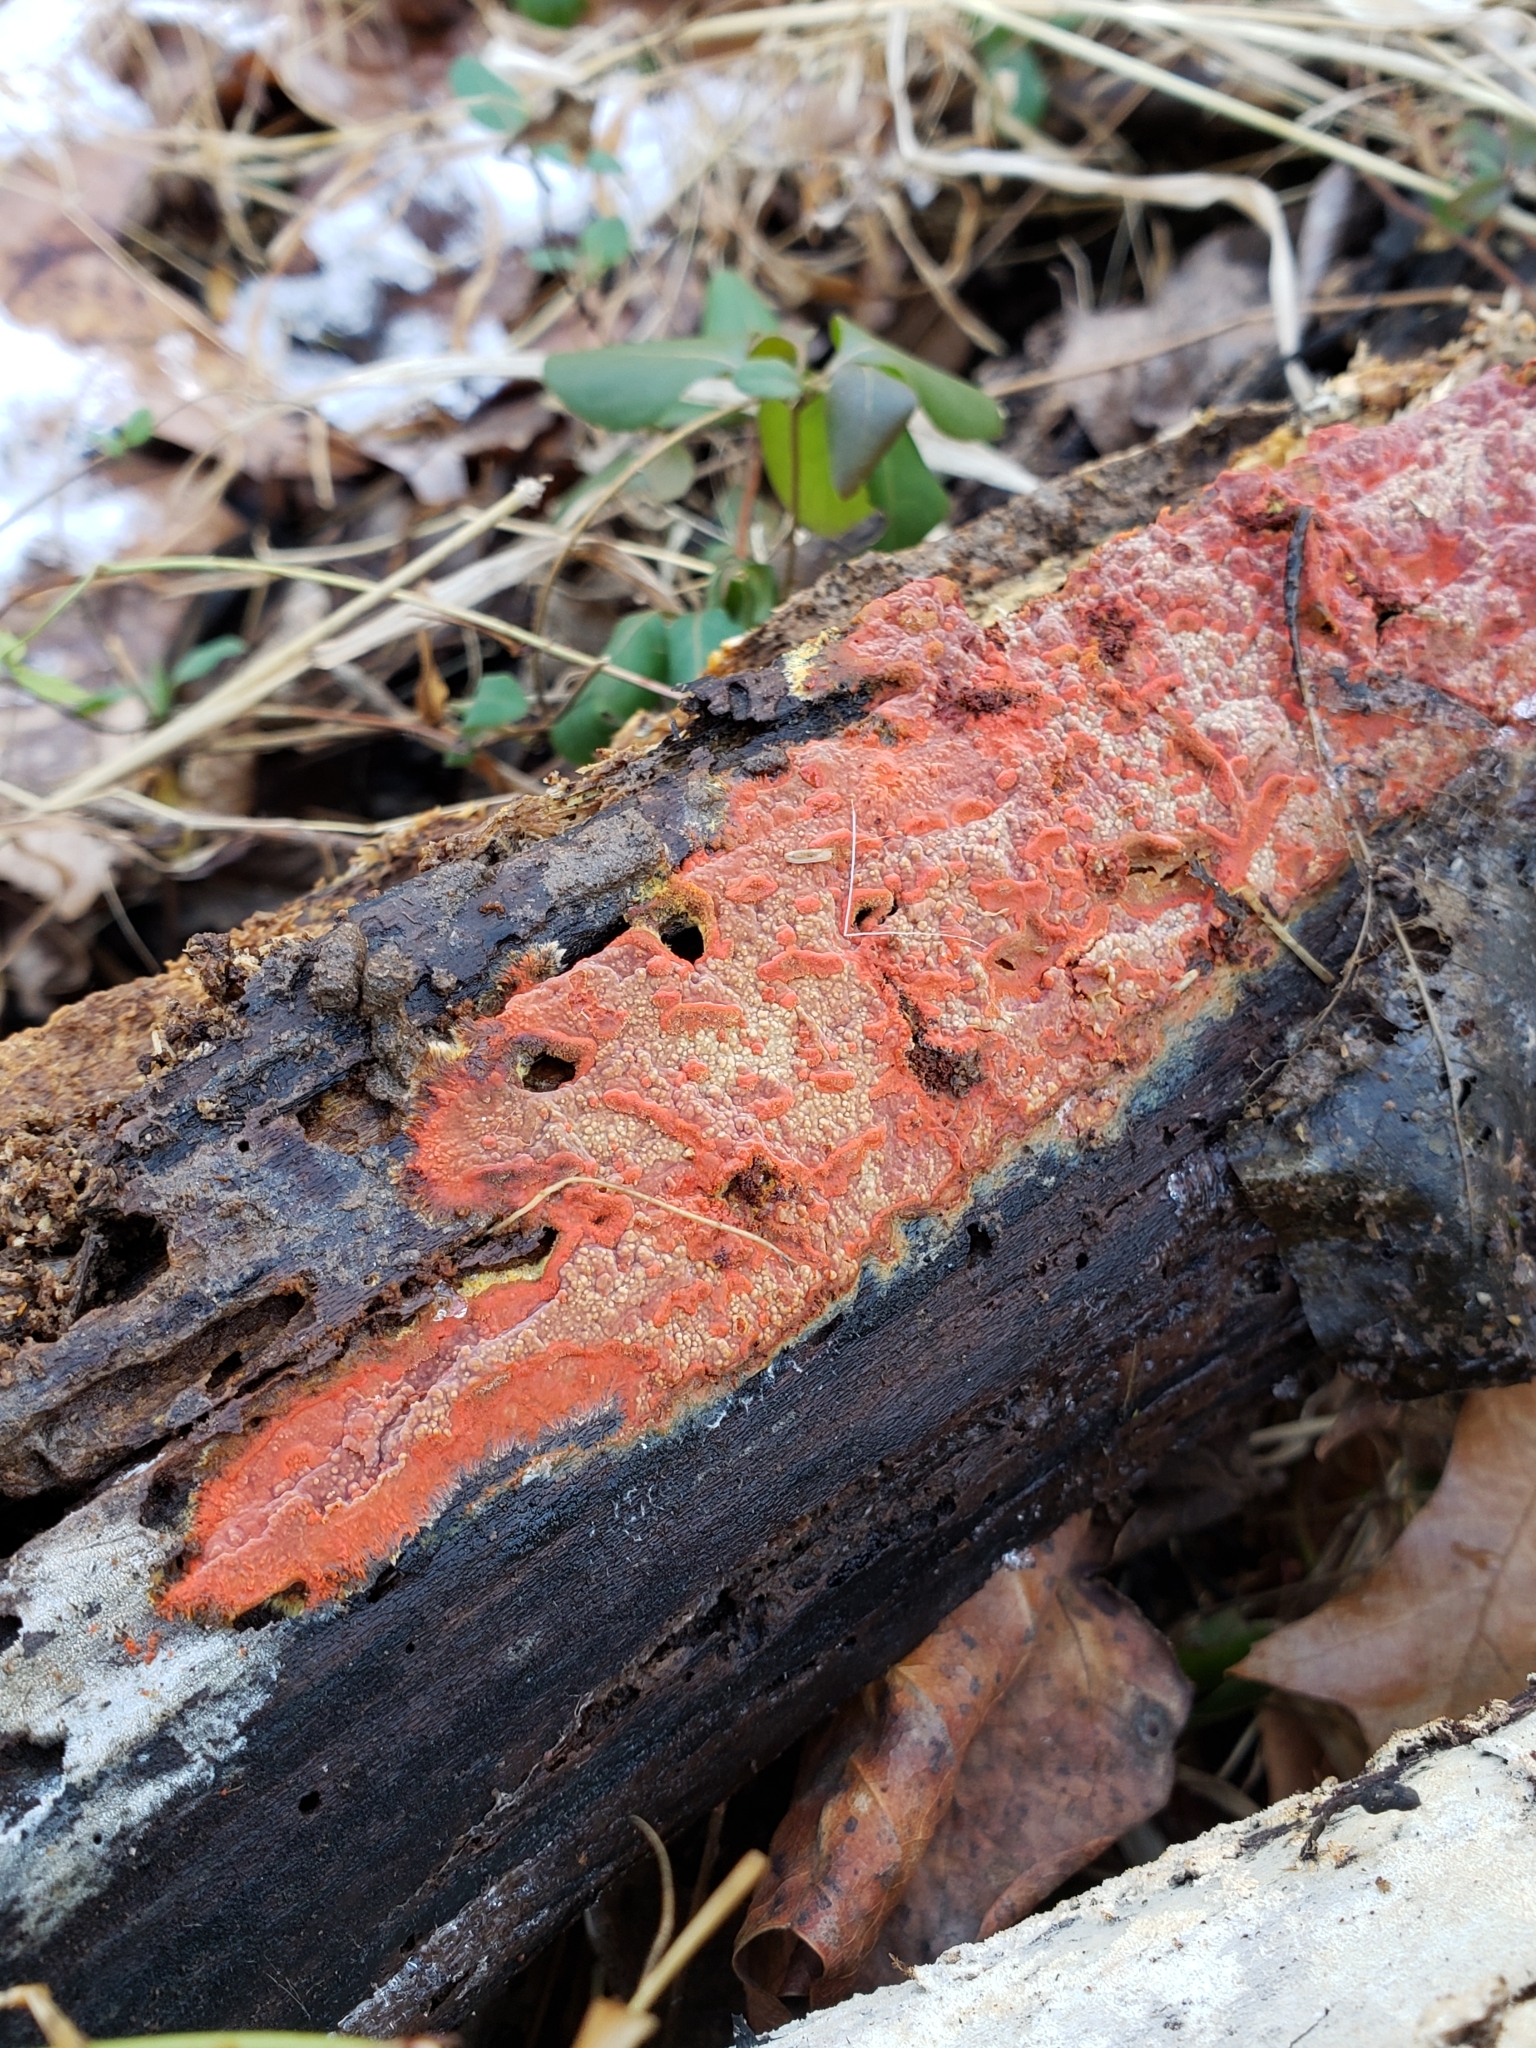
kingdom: Fungi
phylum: Basidiomycota
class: Agaricomycetes
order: Polyporales
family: Meruliaceae
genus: Phlebia
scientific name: Phlebia coccineofulva
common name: Scarlet waxcrust
